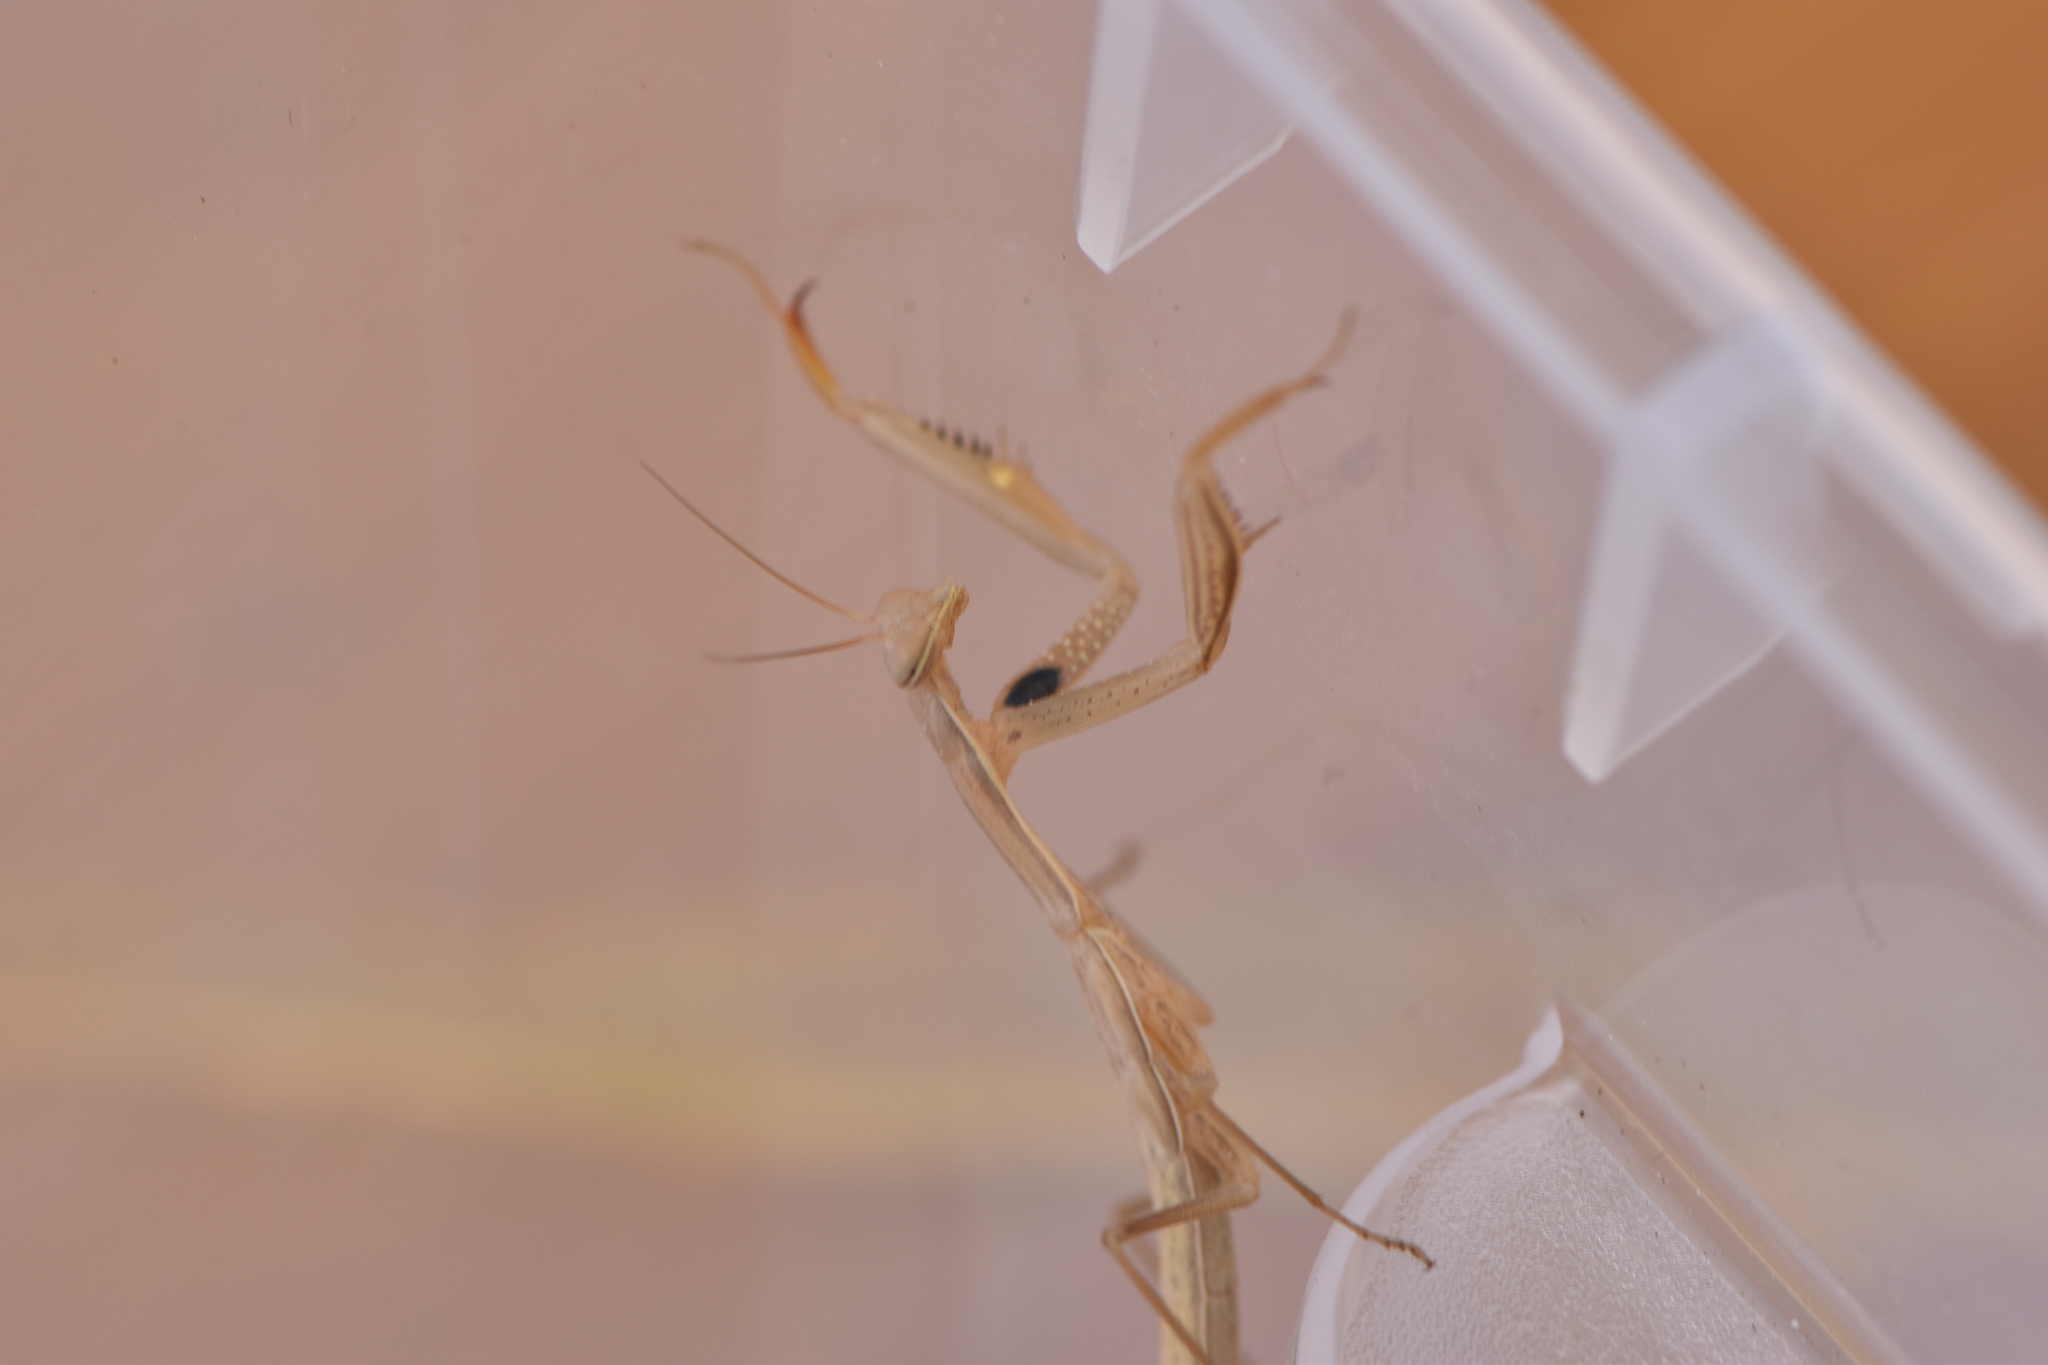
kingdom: Animalia
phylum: Arthropoda
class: Insecta
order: Mantodea
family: Mantidae
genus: Mantis
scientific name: Mantis religiosa
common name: Praying mantis
